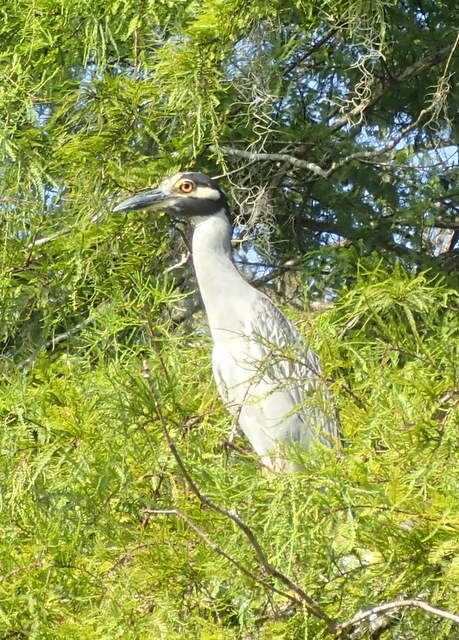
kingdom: Animalia
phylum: Chordata
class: Aves
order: Pelecaniformes
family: Ardeidae
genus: Nyctanassa
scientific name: Nyctanassa violacea
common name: Yellow-crowned night heron
